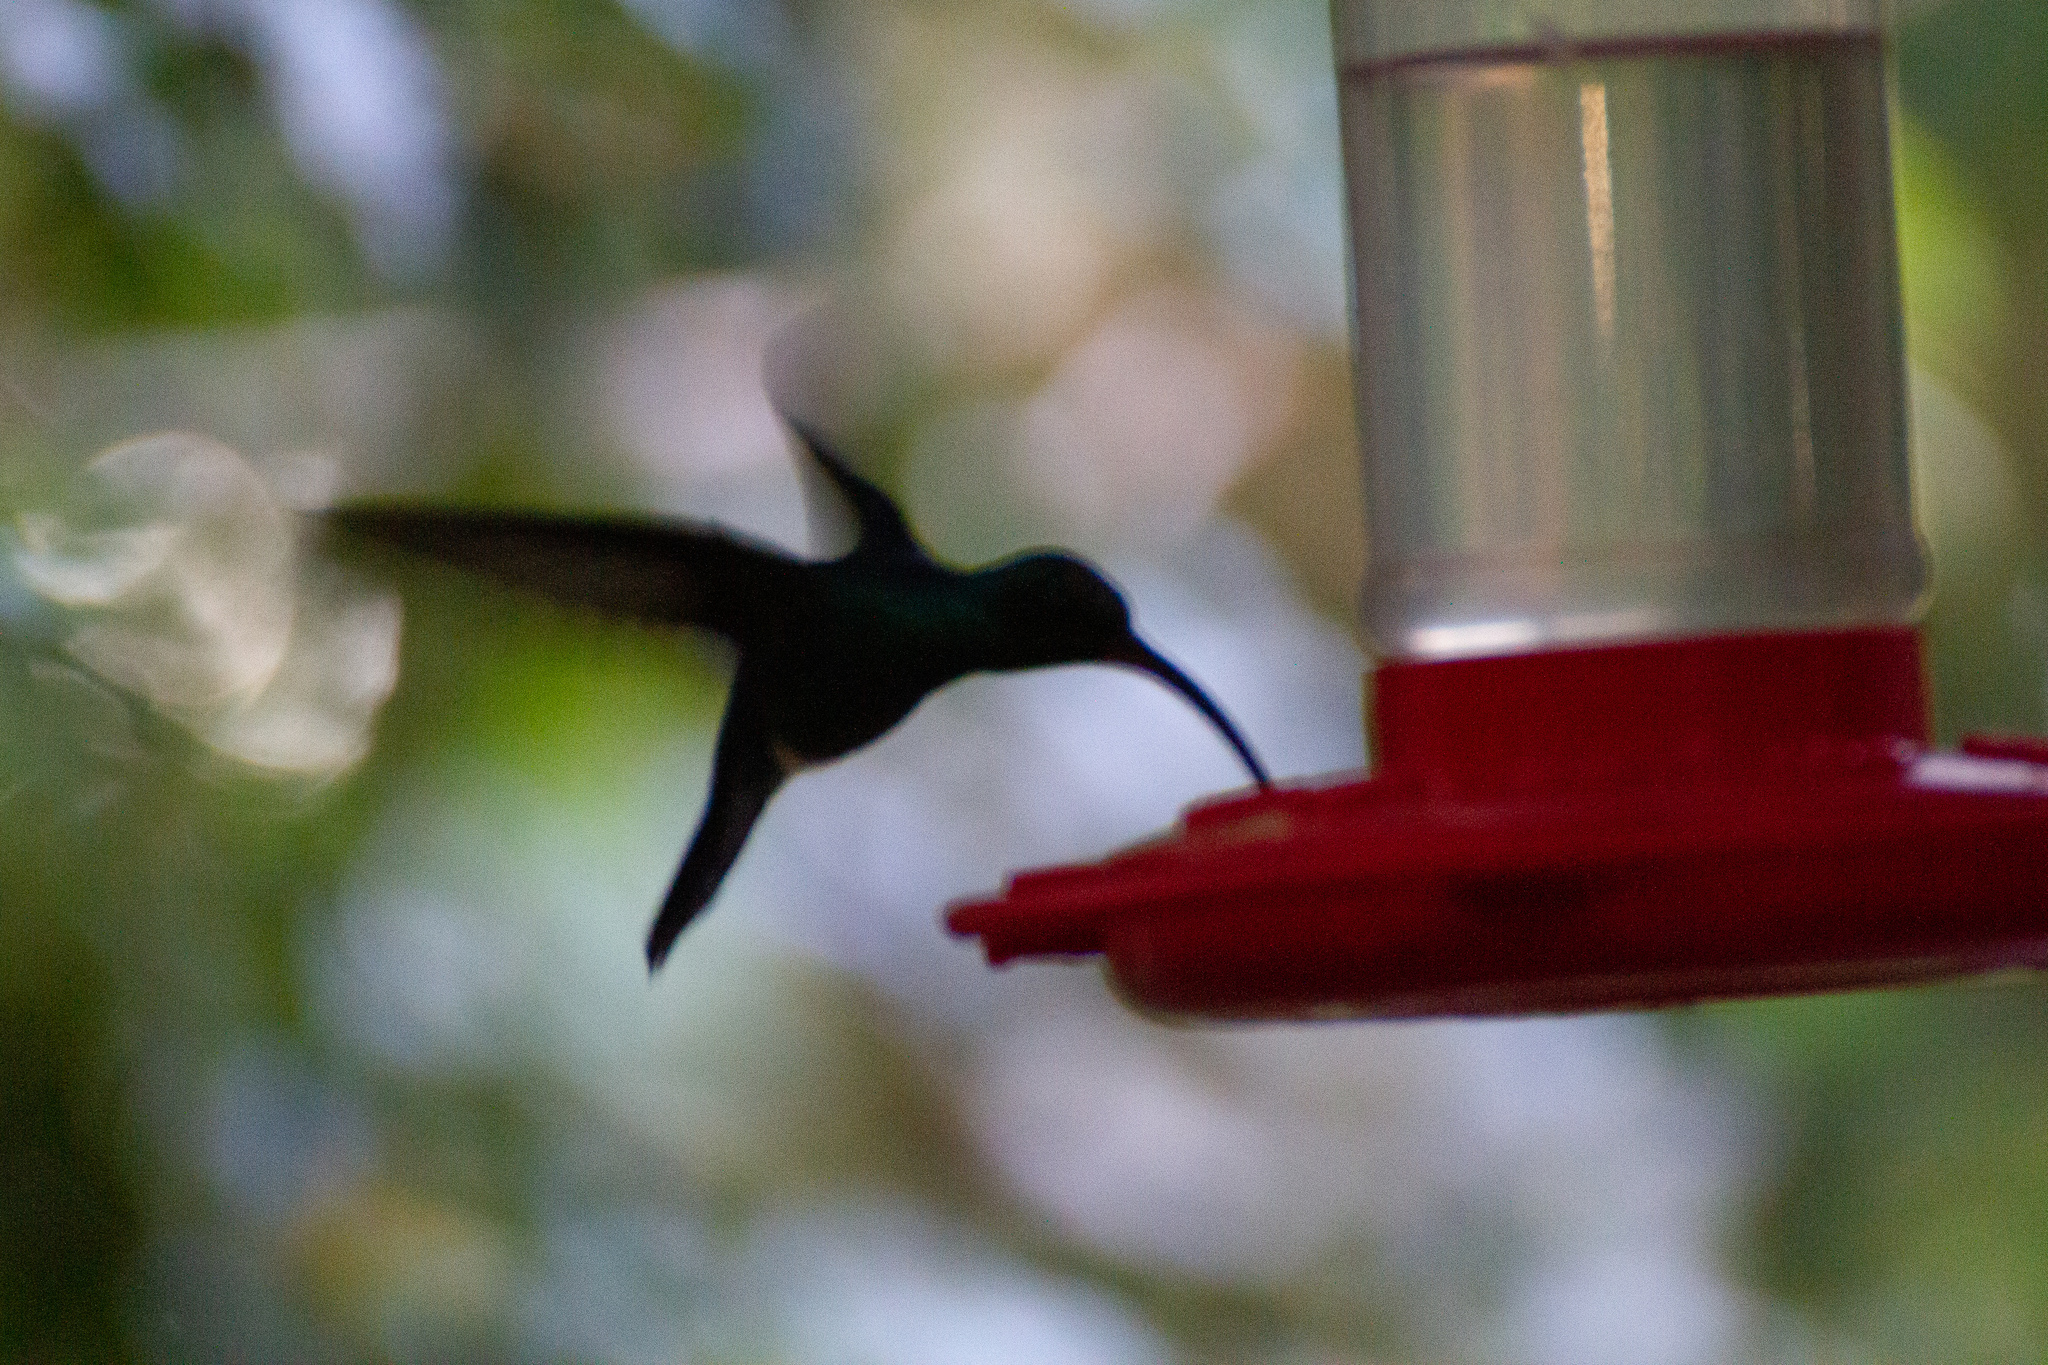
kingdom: Animalia
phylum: Chordata
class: Aves
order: Apodiformes
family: Trochilidae
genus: Phaethornis
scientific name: Phaethornis guy
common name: Green hermit
